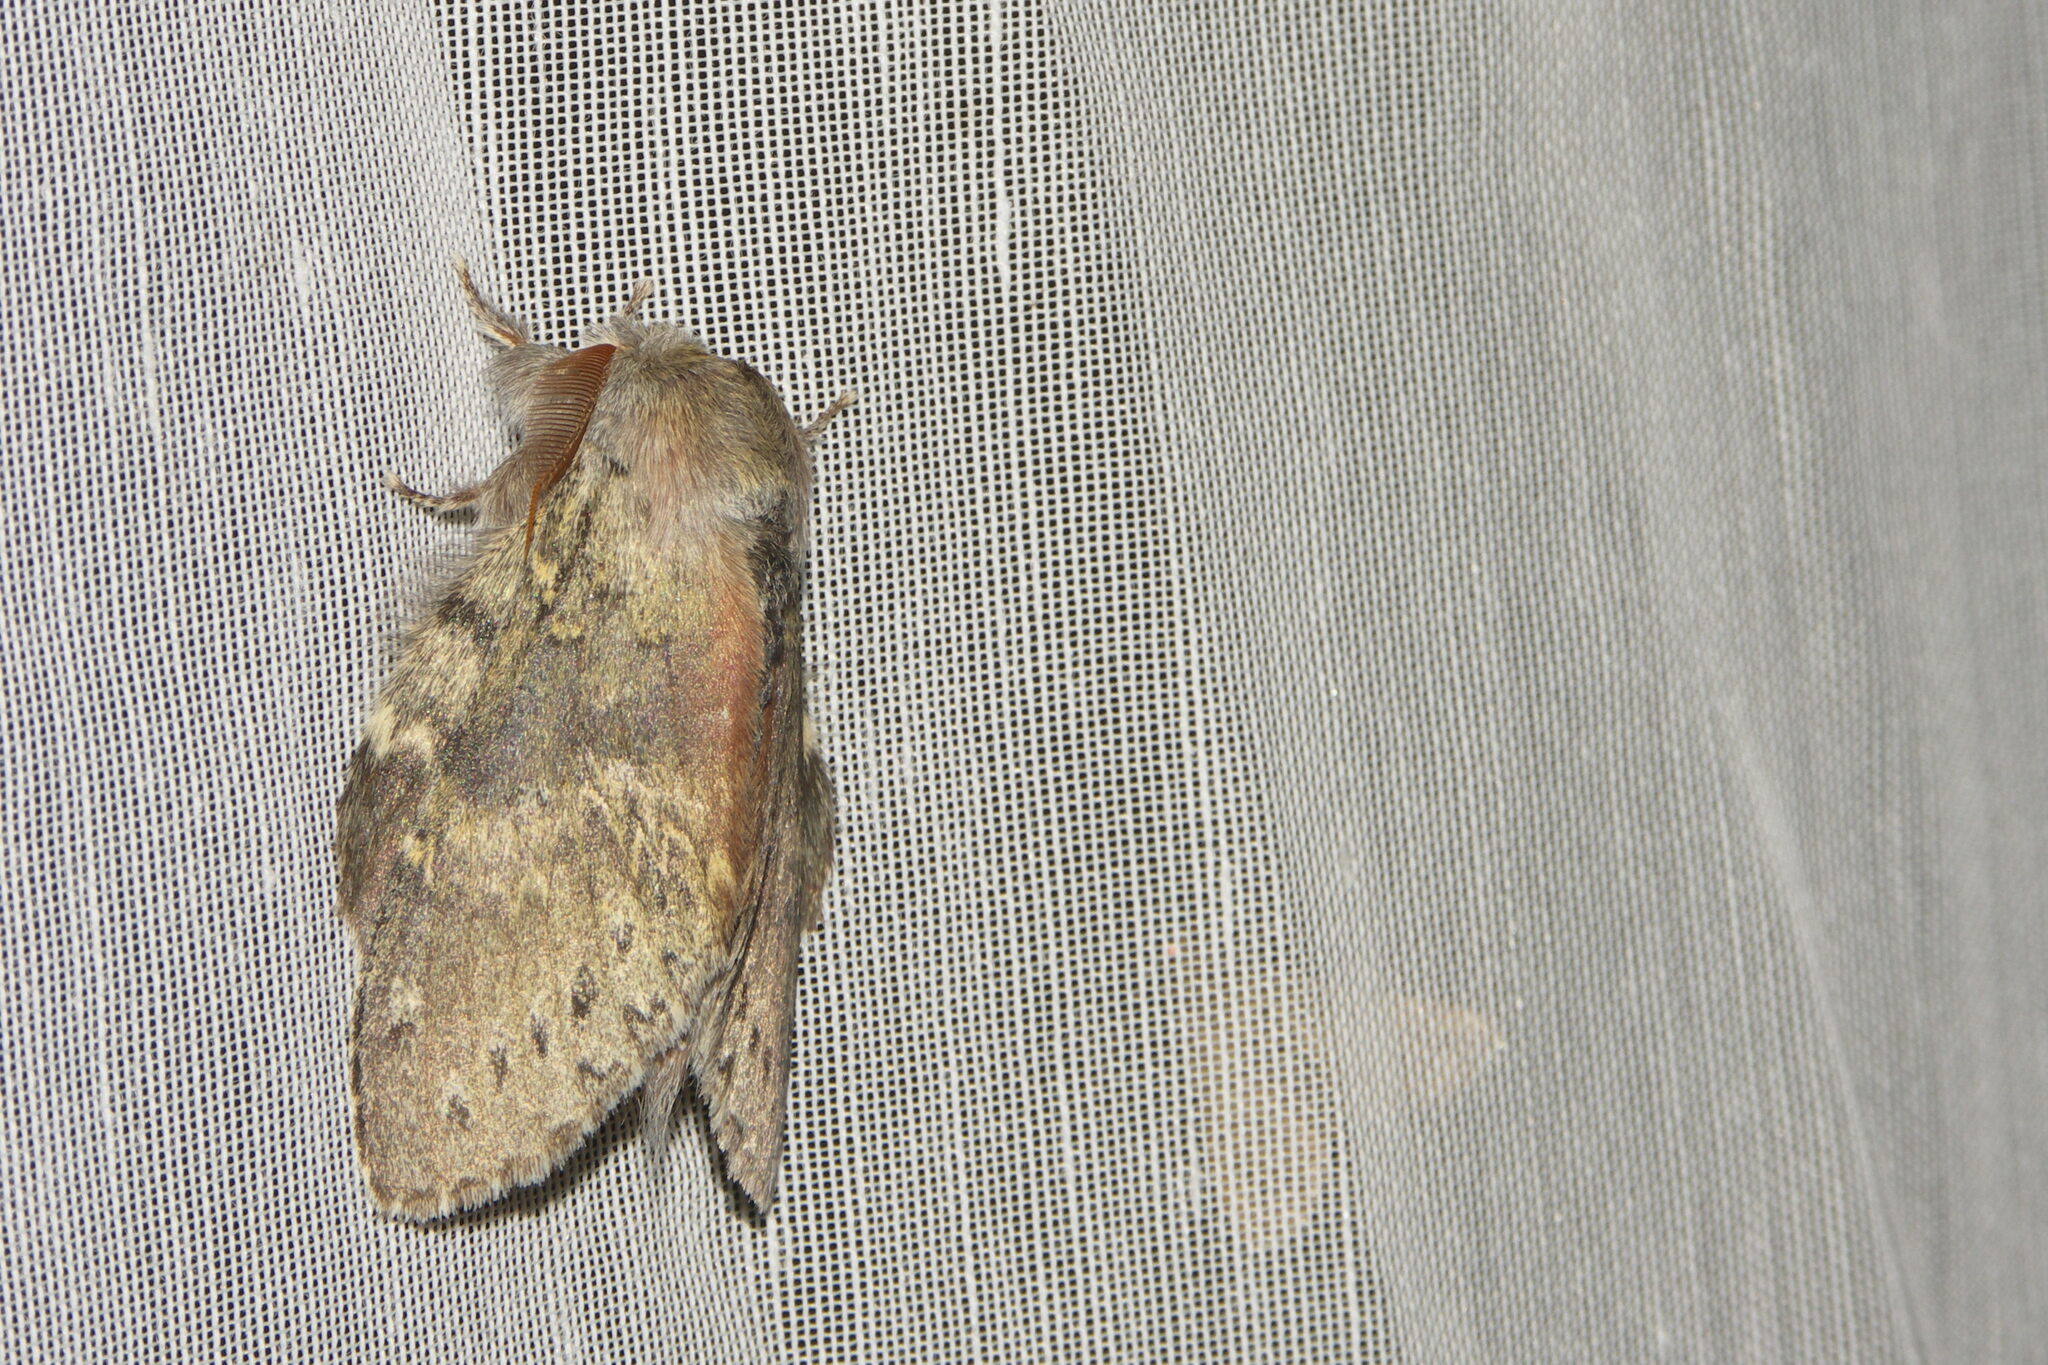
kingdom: Animalia
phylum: Arthropoda
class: Insecta
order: Lepidoptera
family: Notodontidae
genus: Stauropus
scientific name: Stauropus fagi
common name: Lobster moth
